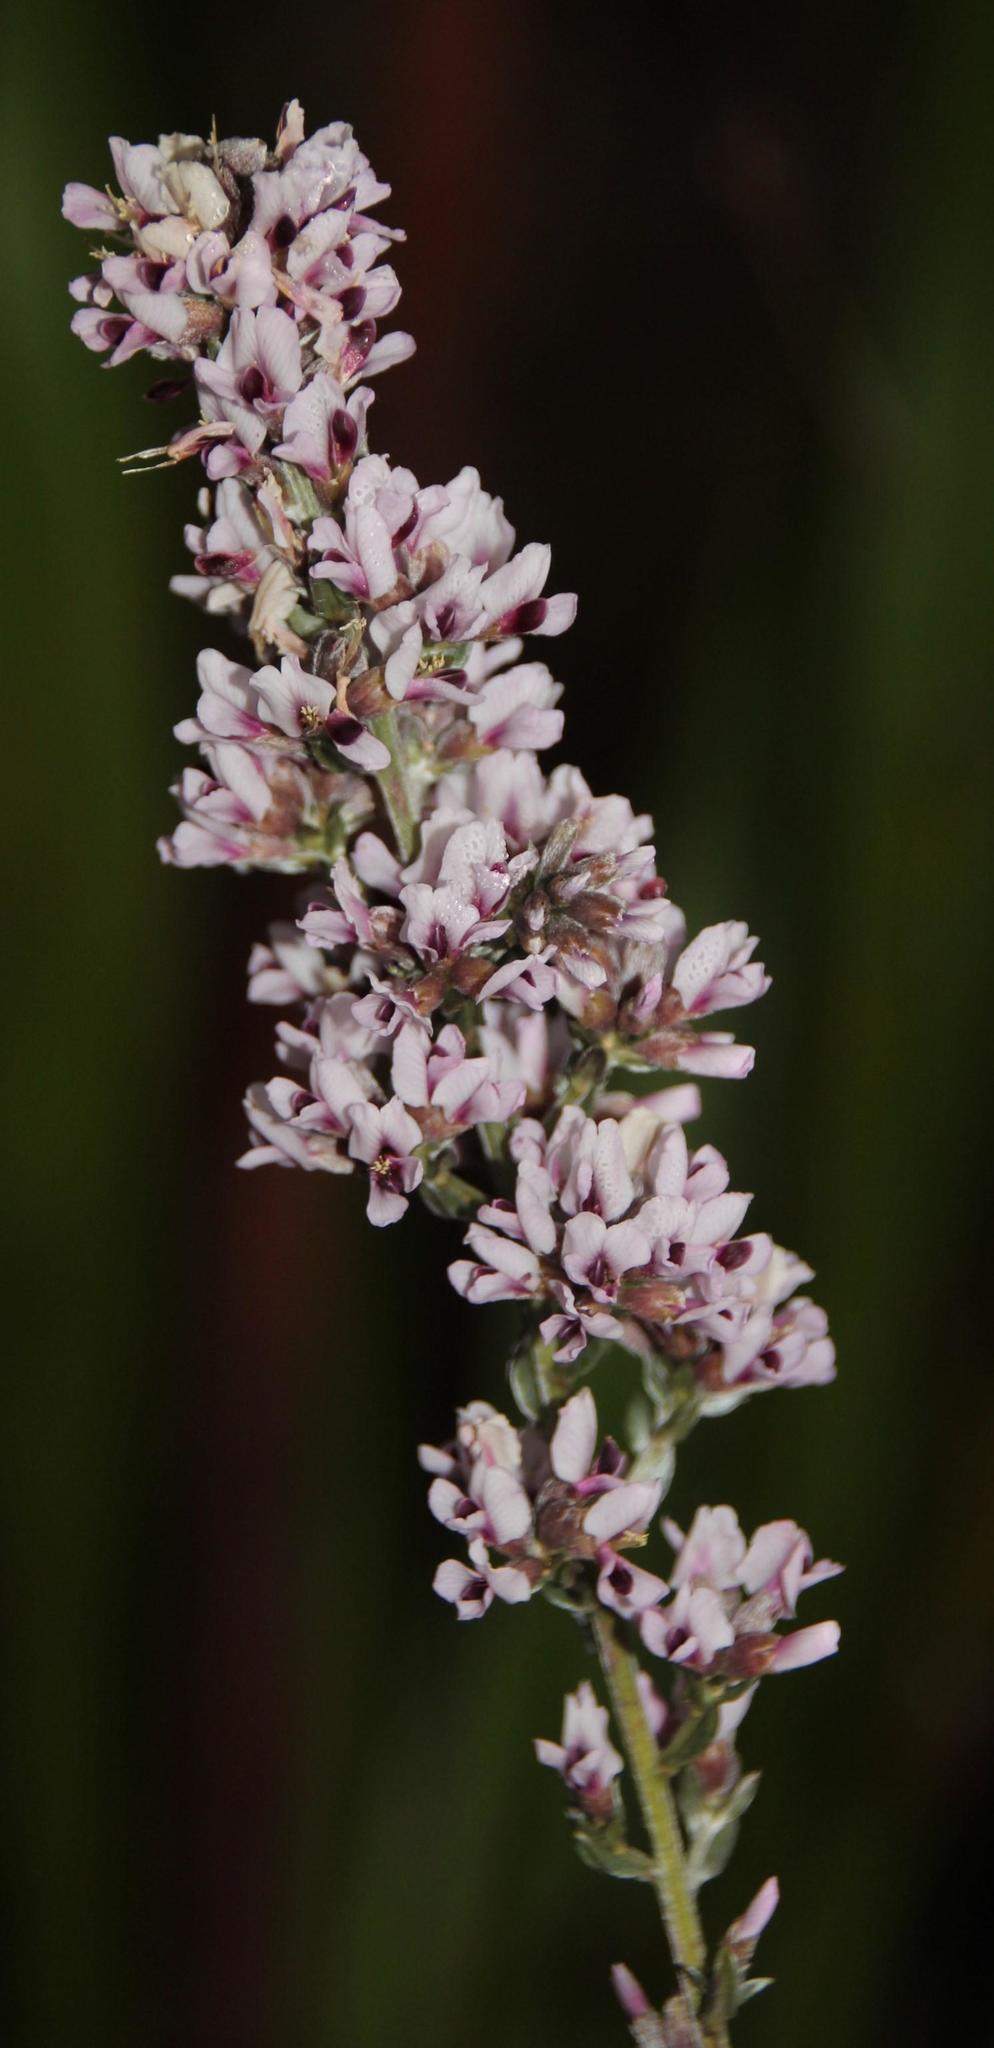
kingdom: Plantae
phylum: Tracheophyta
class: Magnoliopsida
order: Fabales
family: Fabaceae
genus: Amphithalea
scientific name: Amphithalea ericifolia
